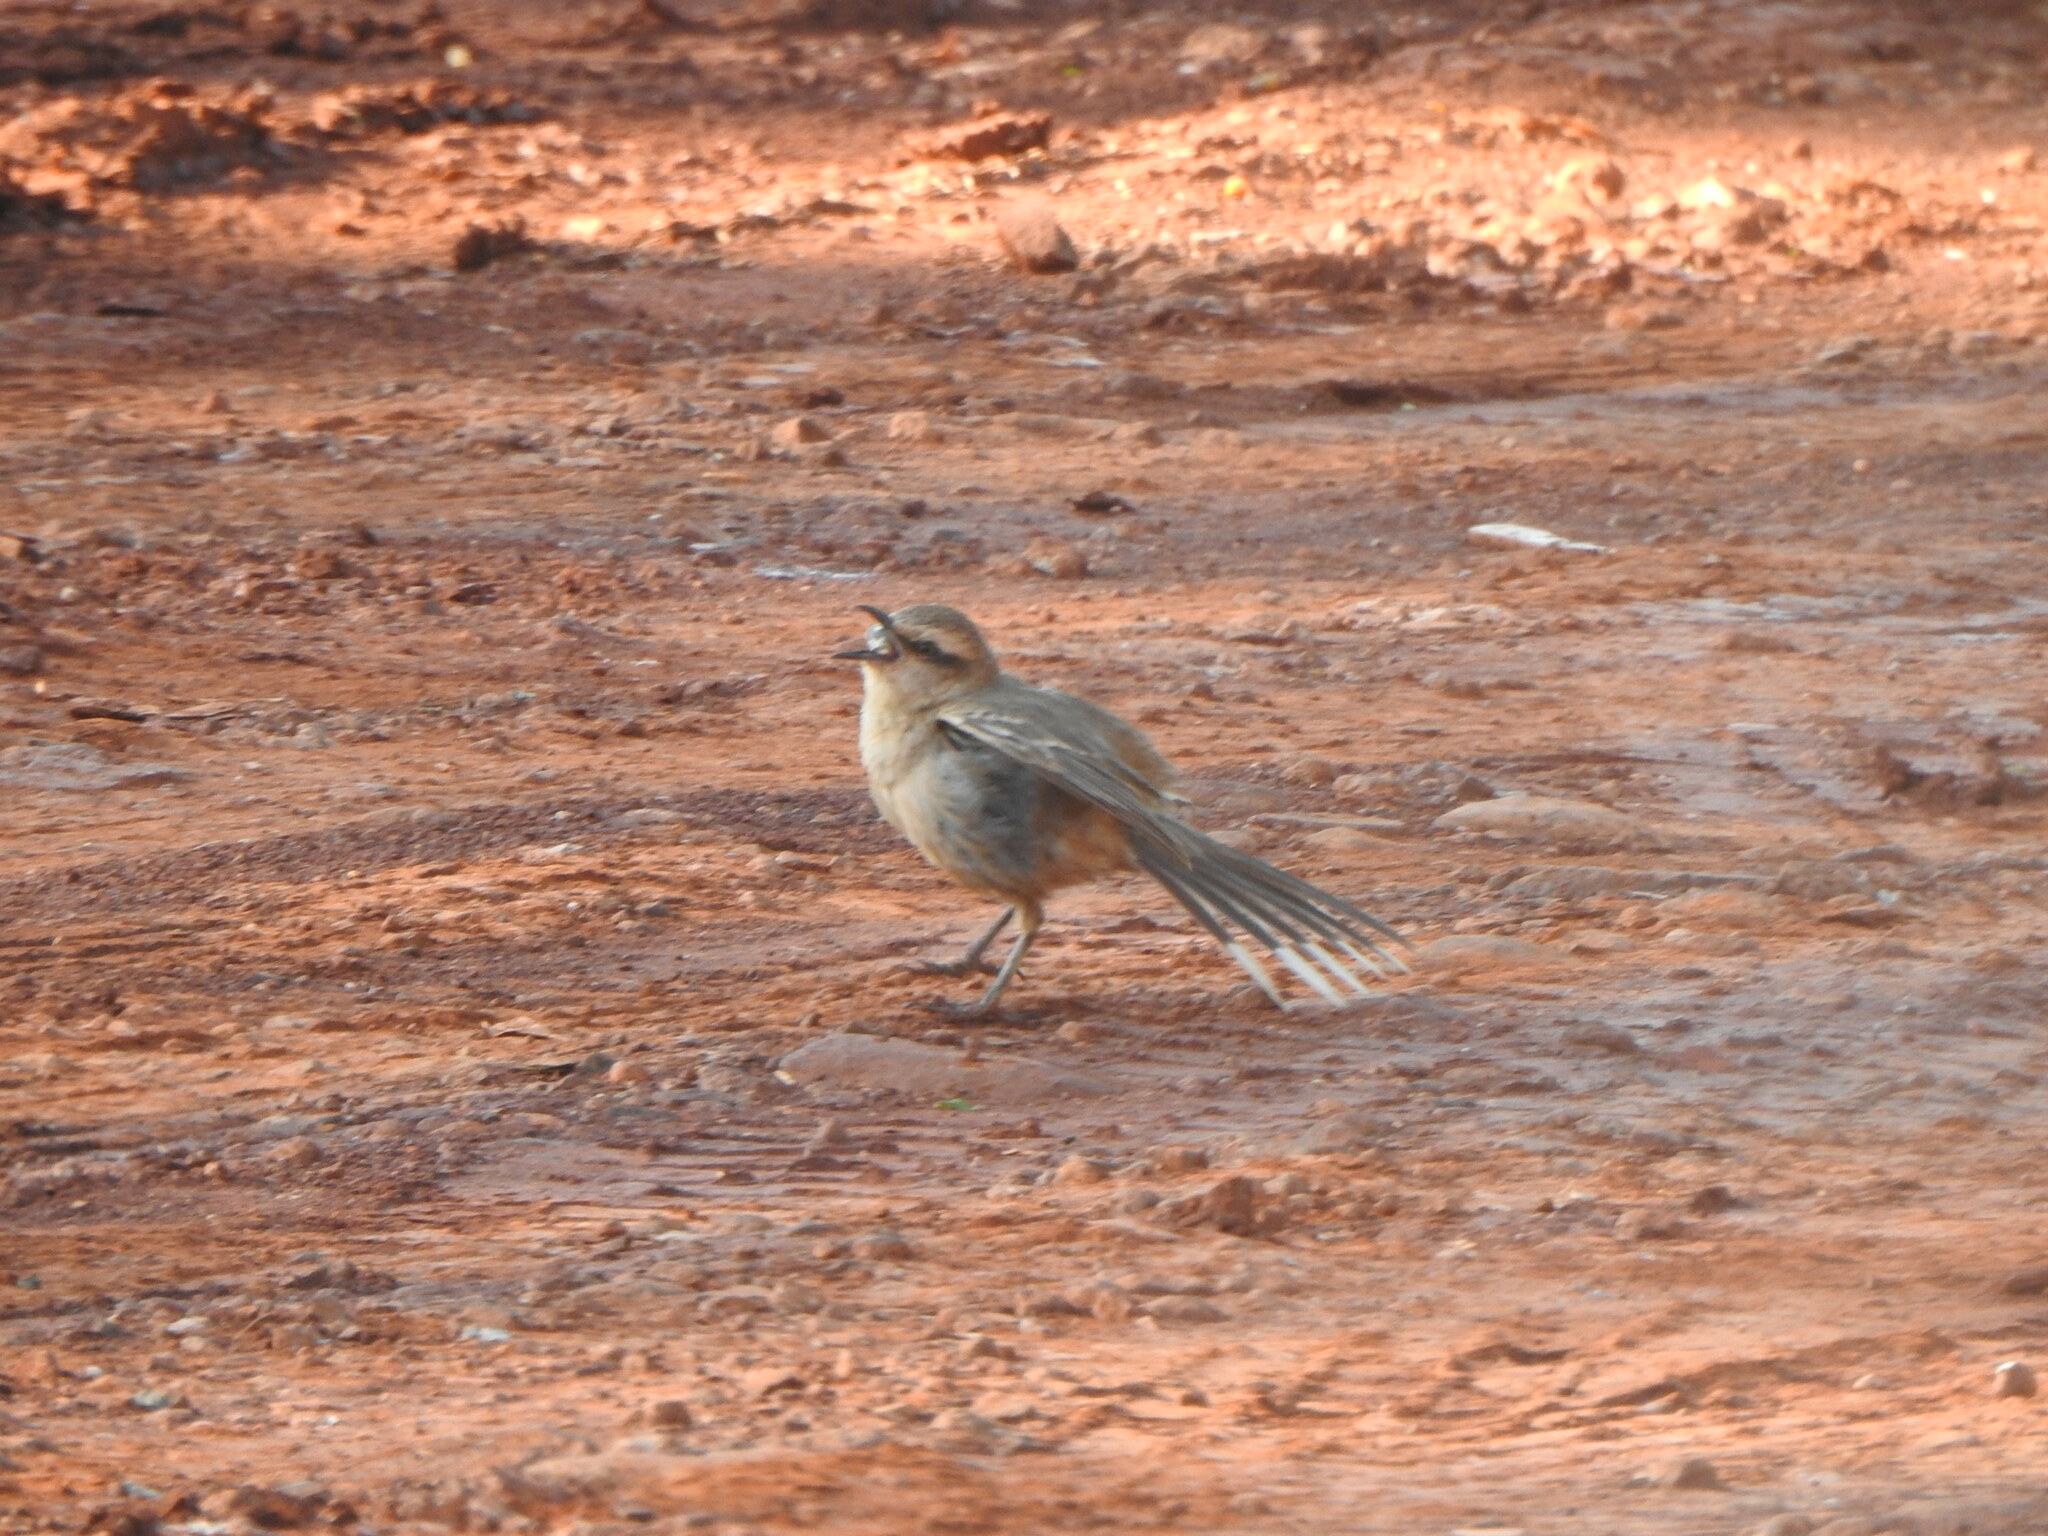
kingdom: Animalia
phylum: Chordata
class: Aves
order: Passeriformes
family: Mimidae
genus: Mimus
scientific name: Mimus saturninus
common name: Chalk-browed mockingbird
